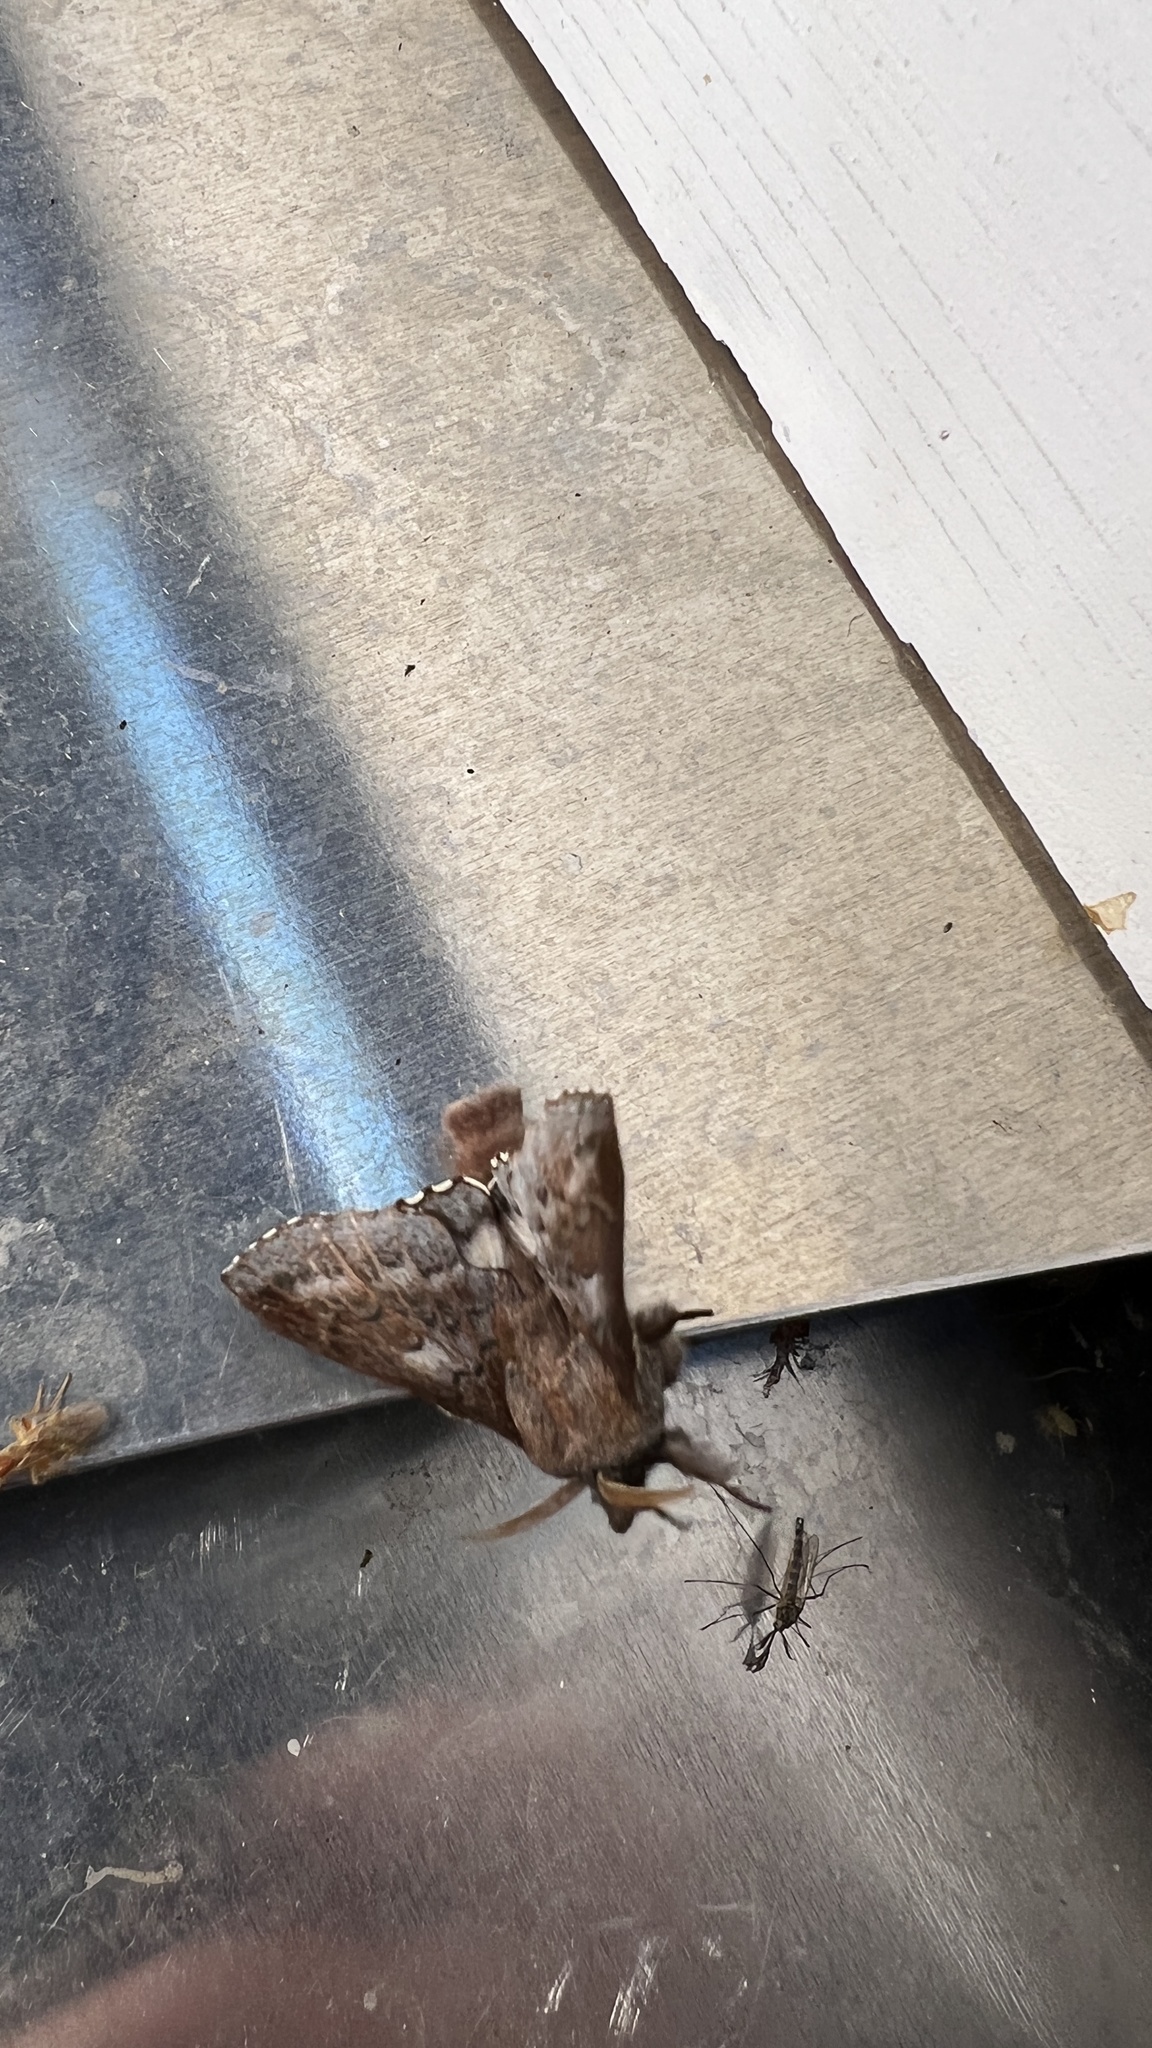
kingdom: Animalia
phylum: Arthropoda
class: Insecta
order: Lepidoptera
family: Lasiocampidae
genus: Phyllodesma
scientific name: Phyllodesma americana
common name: American lappet moth
